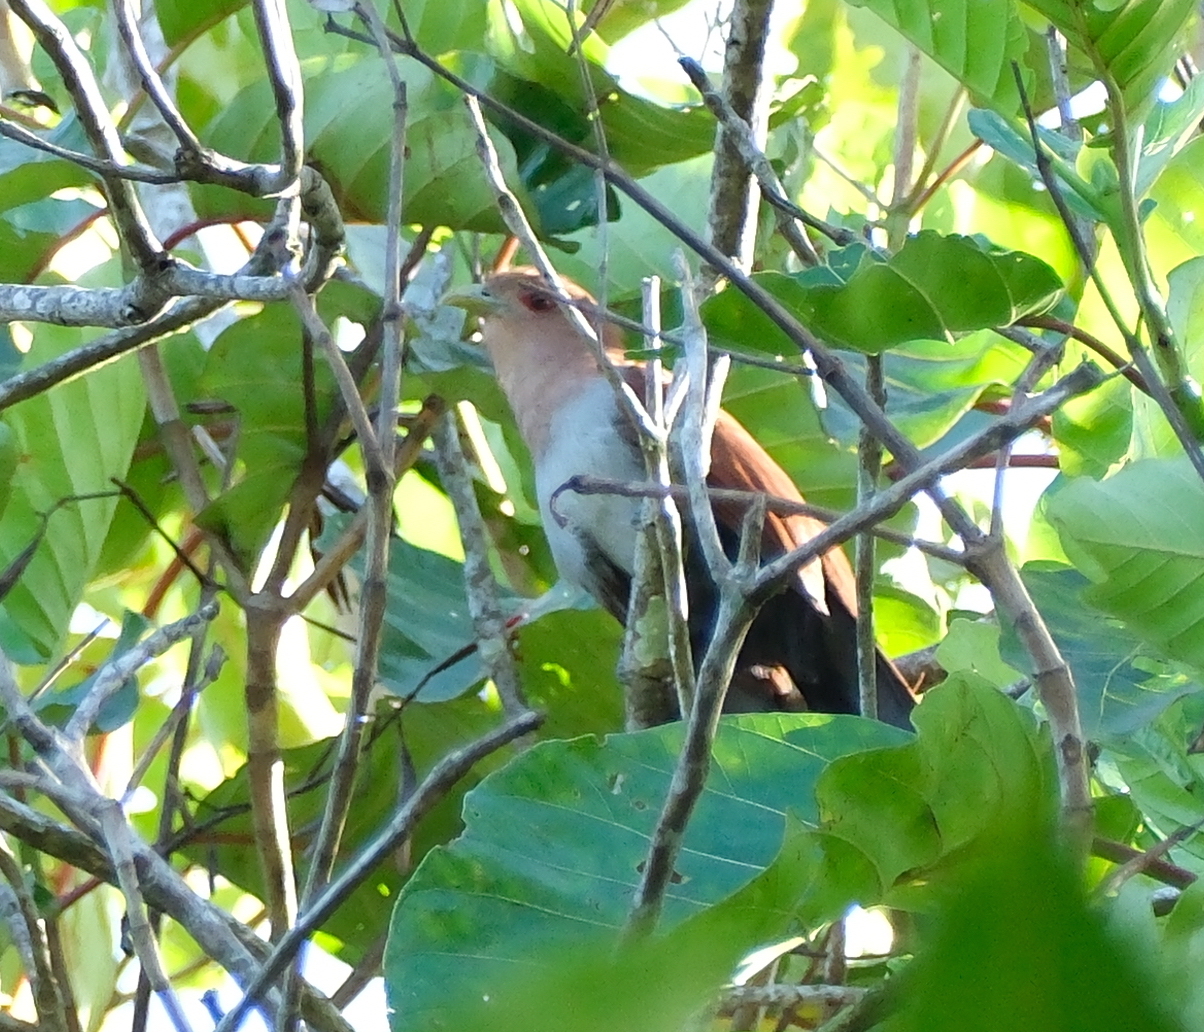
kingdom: Animalia
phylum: Chordata
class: Aves
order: Cuculiformes
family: Cuculidae
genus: Piaya
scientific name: Piaya cayana
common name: Squirrel cuckoo
